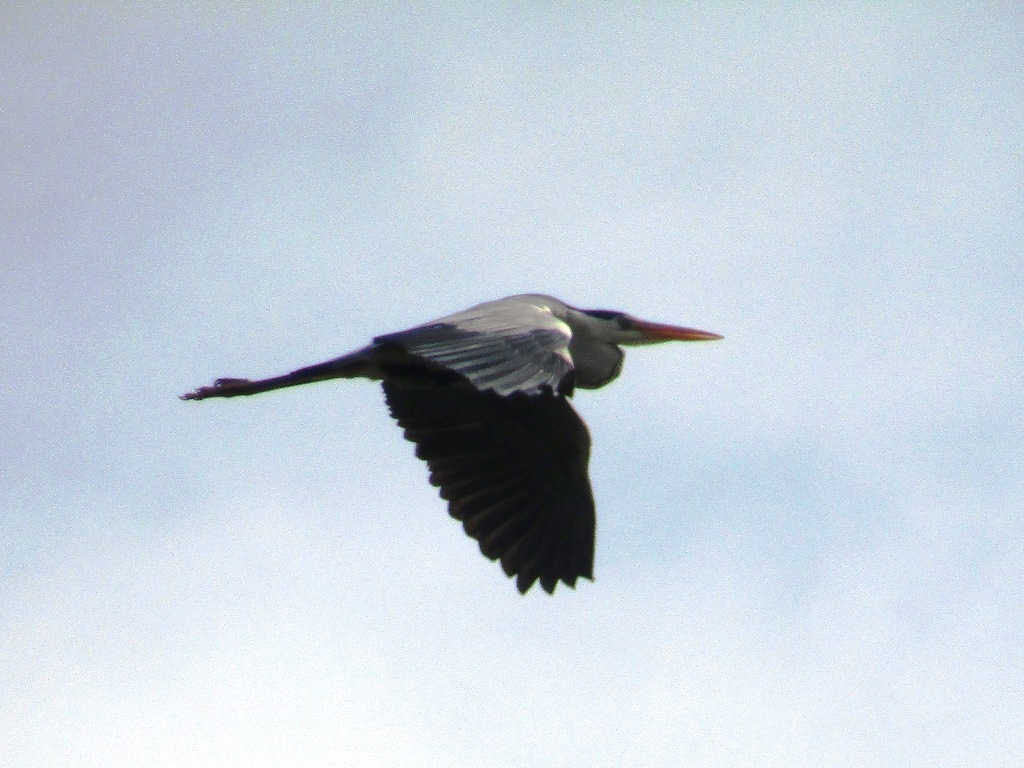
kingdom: Animalia
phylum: Chordata
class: Aves
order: Pelecaniformes
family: Ardeidae
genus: Ardea
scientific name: Ardea cinerea
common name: Grey heron
